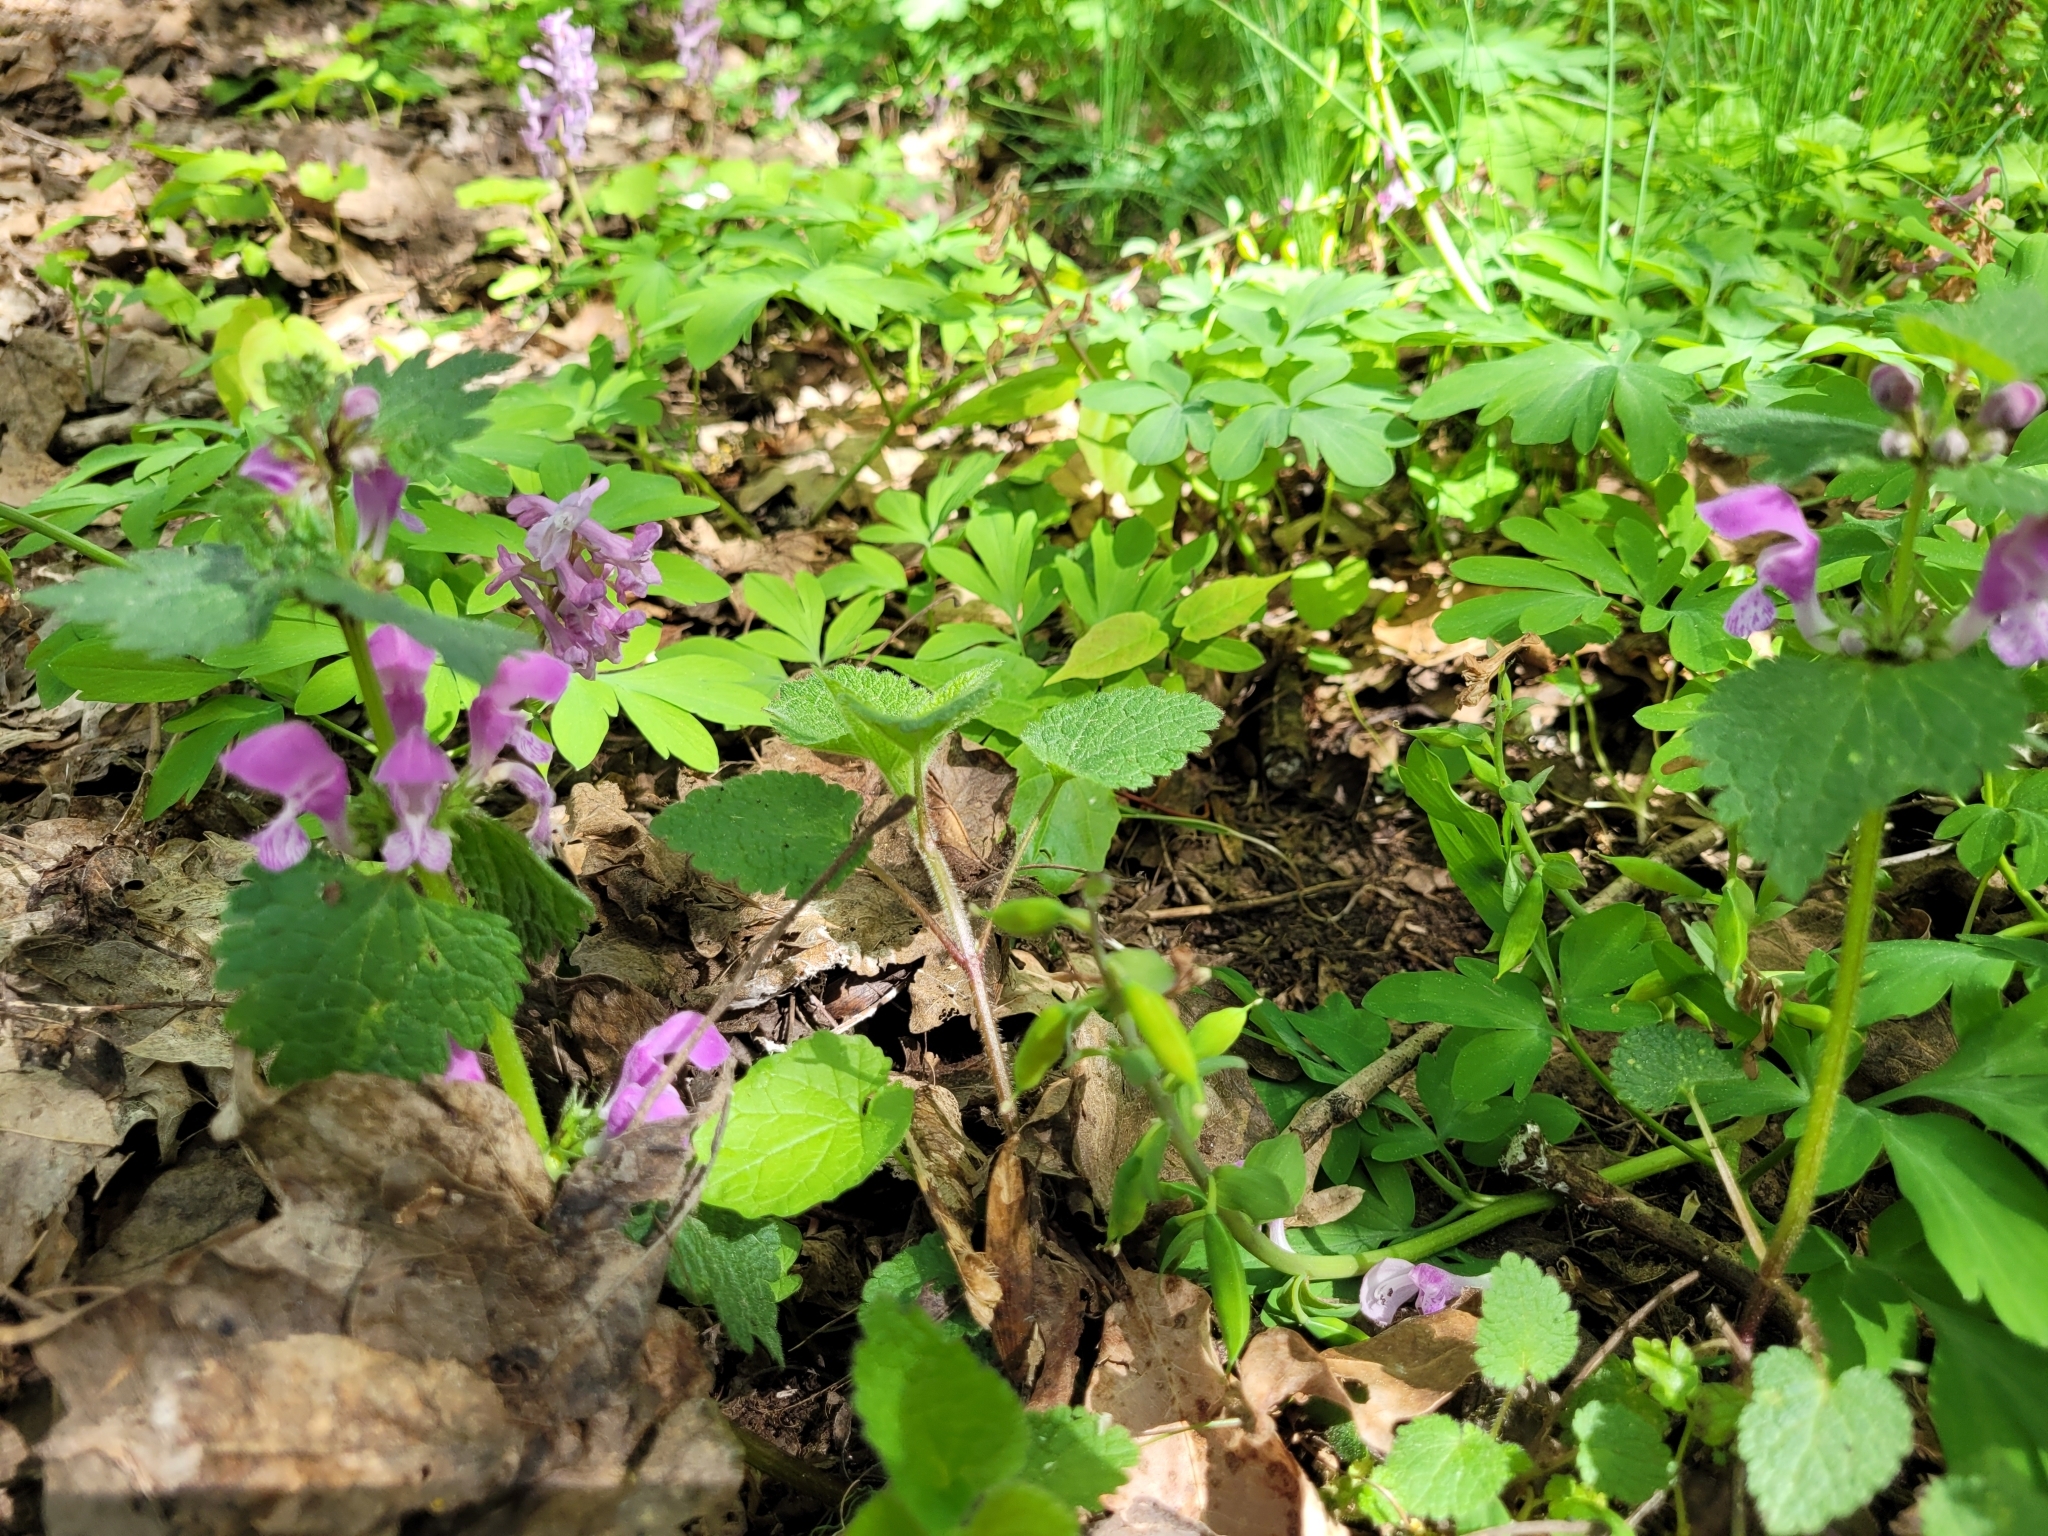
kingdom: Plantae
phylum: Tracheophyta
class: Magnoliopsida
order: Lamiales
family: Lamiaceae
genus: Lamium
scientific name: Lamium maculatum
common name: Spotted dead-nettle
